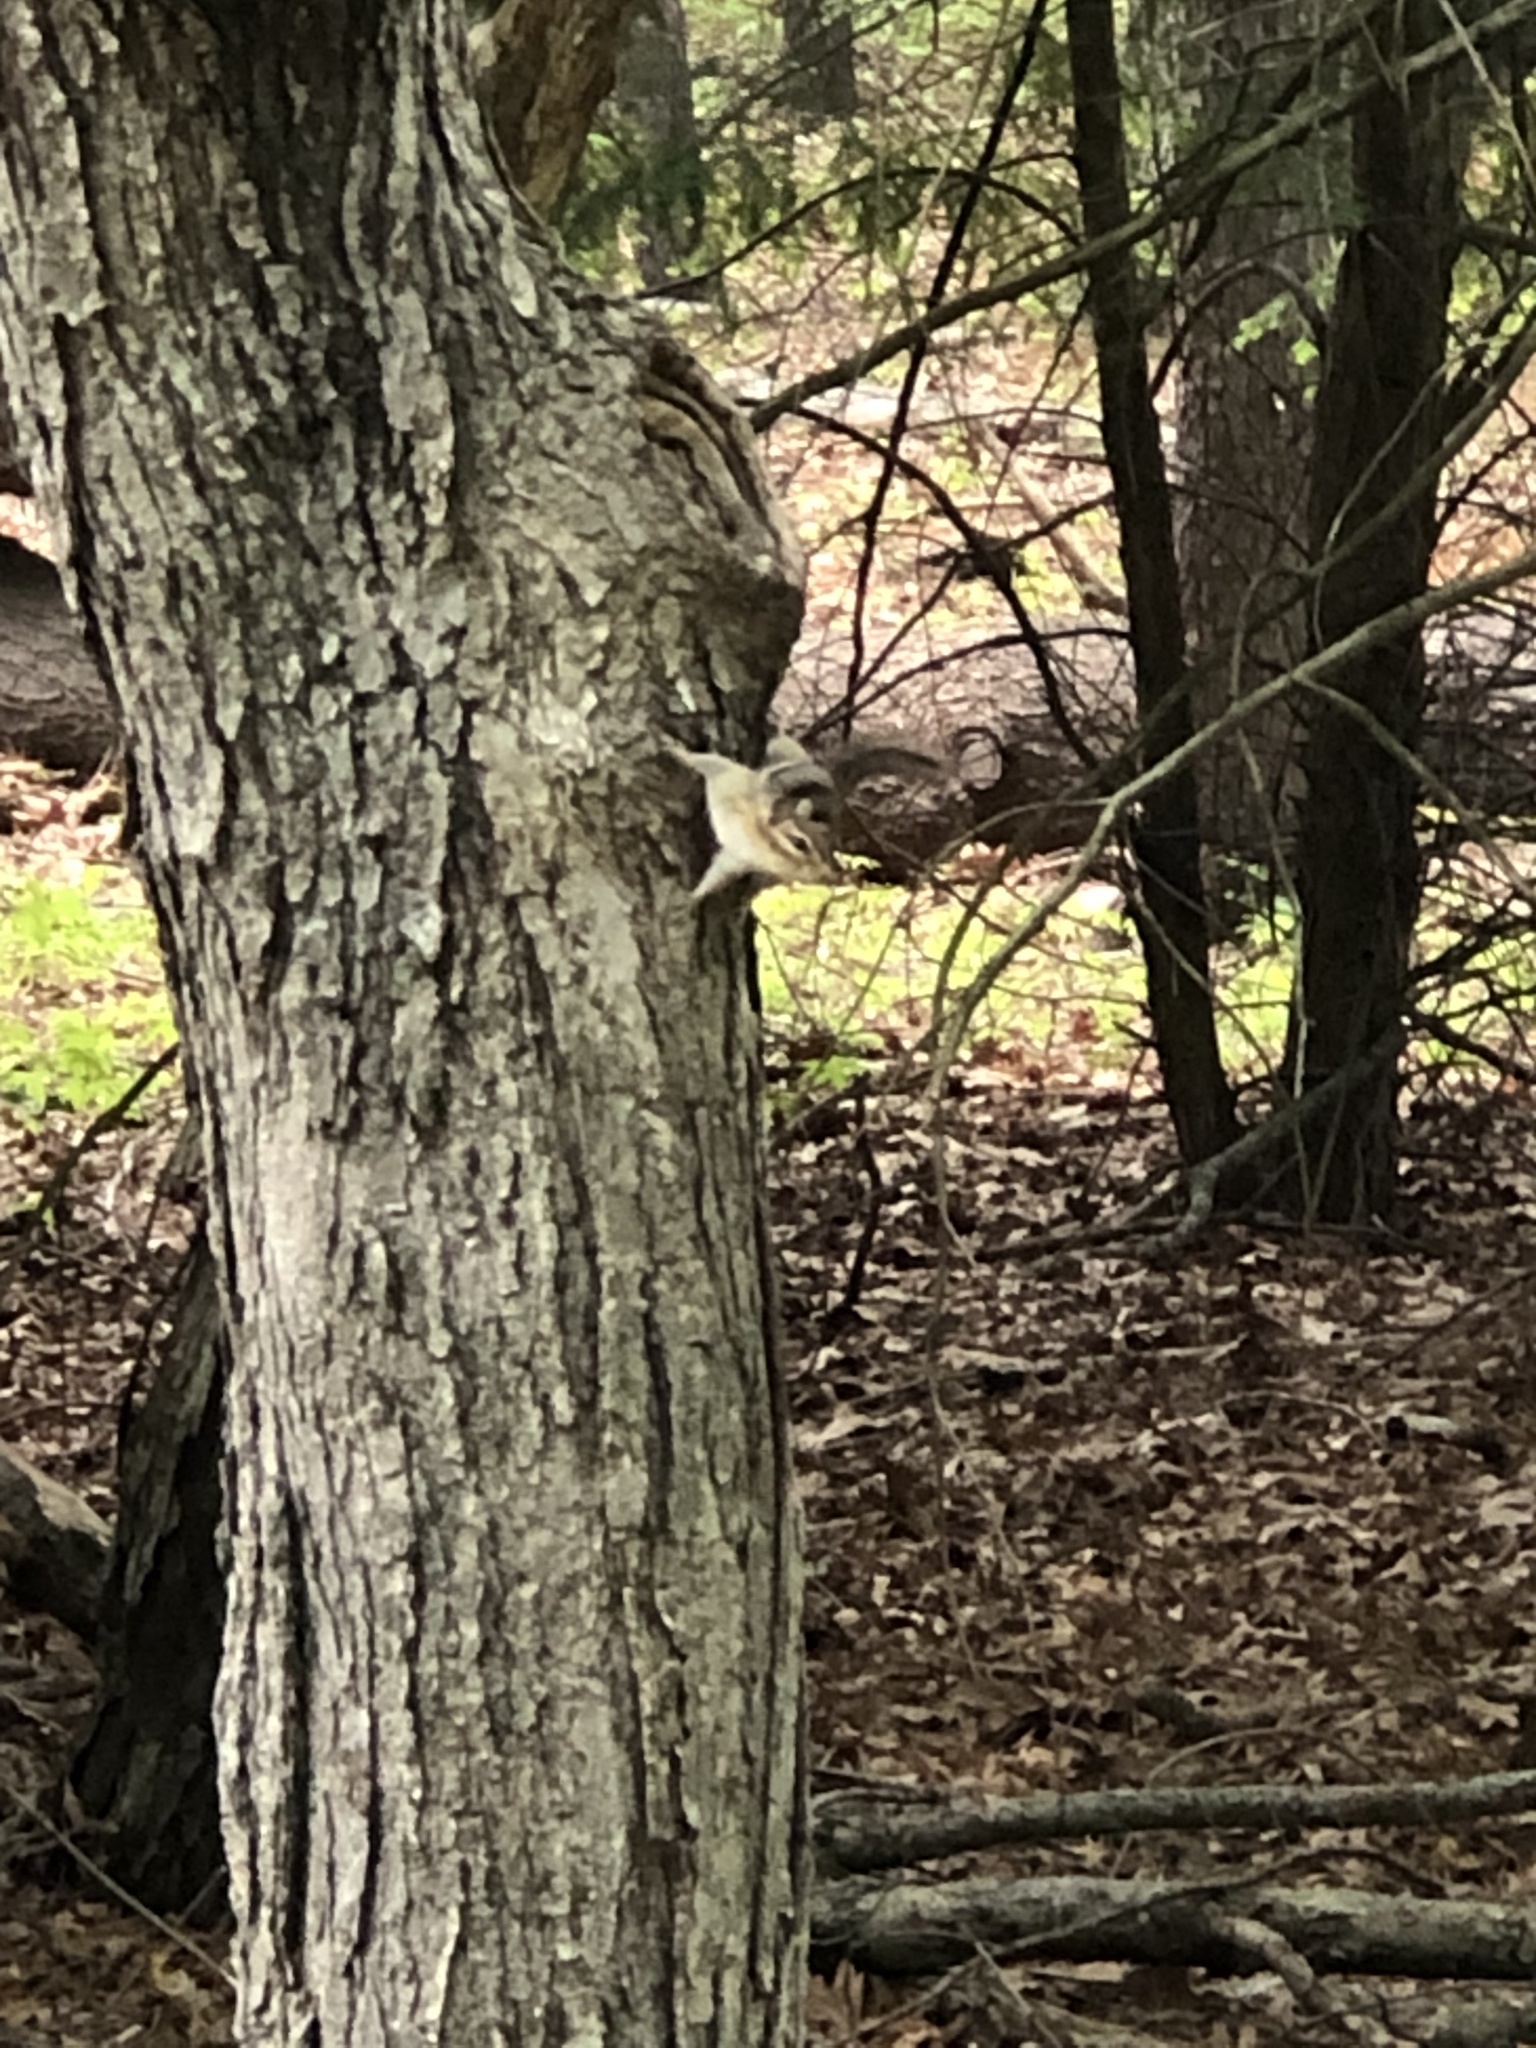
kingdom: Animalia
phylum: Chordata
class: Mammalia
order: Rodentia
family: Sciuridae
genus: Tamias
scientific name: Tamias striatus
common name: Eastern chipmunk
